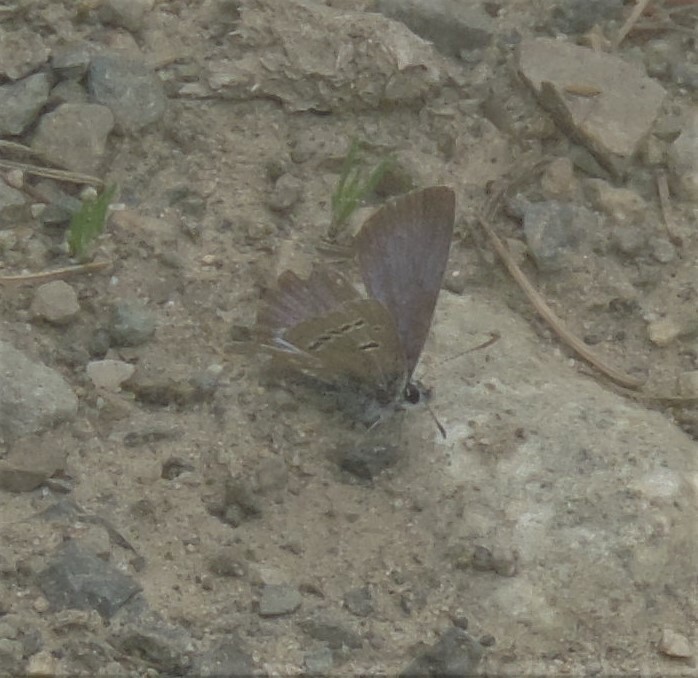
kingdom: Animalia
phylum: Arthropoda
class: Insecta
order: Lepidoptera
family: Lycaenidae
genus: Glaucopsyche
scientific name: Glaucopsyche lygdamus
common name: Silvery blue
